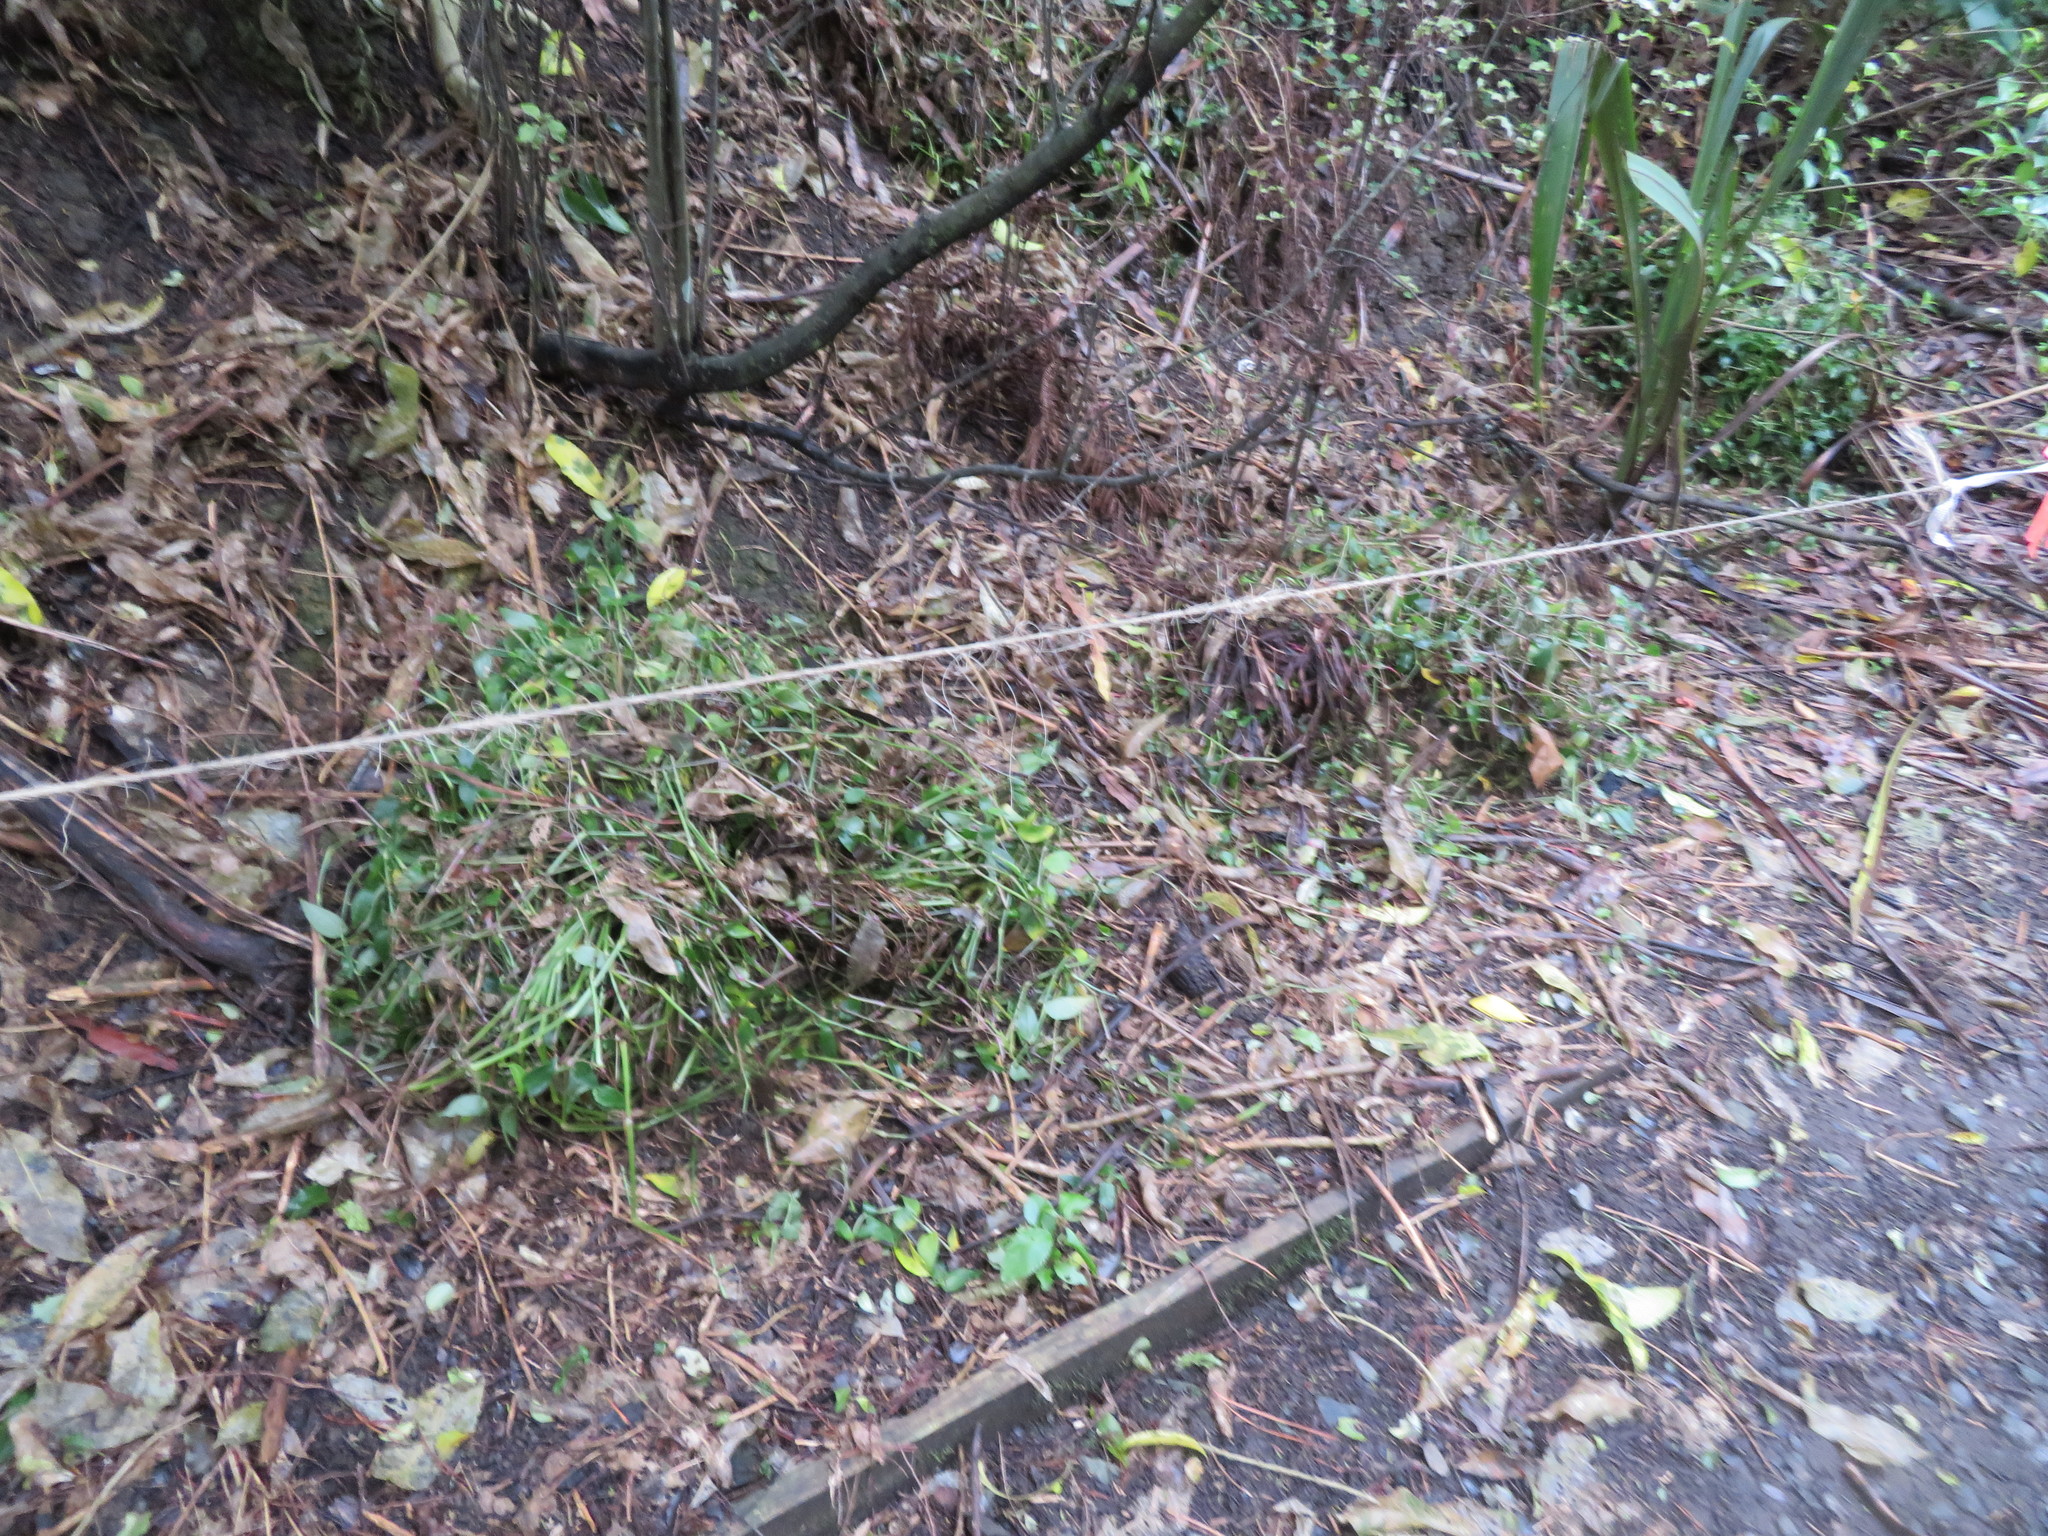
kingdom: Plantae
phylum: Tracheophyta
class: Liliopsida
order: Commelinales
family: Commelinaceae
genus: Tradescantia
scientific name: Tradescantia fluminensis
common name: Wandering-jew
